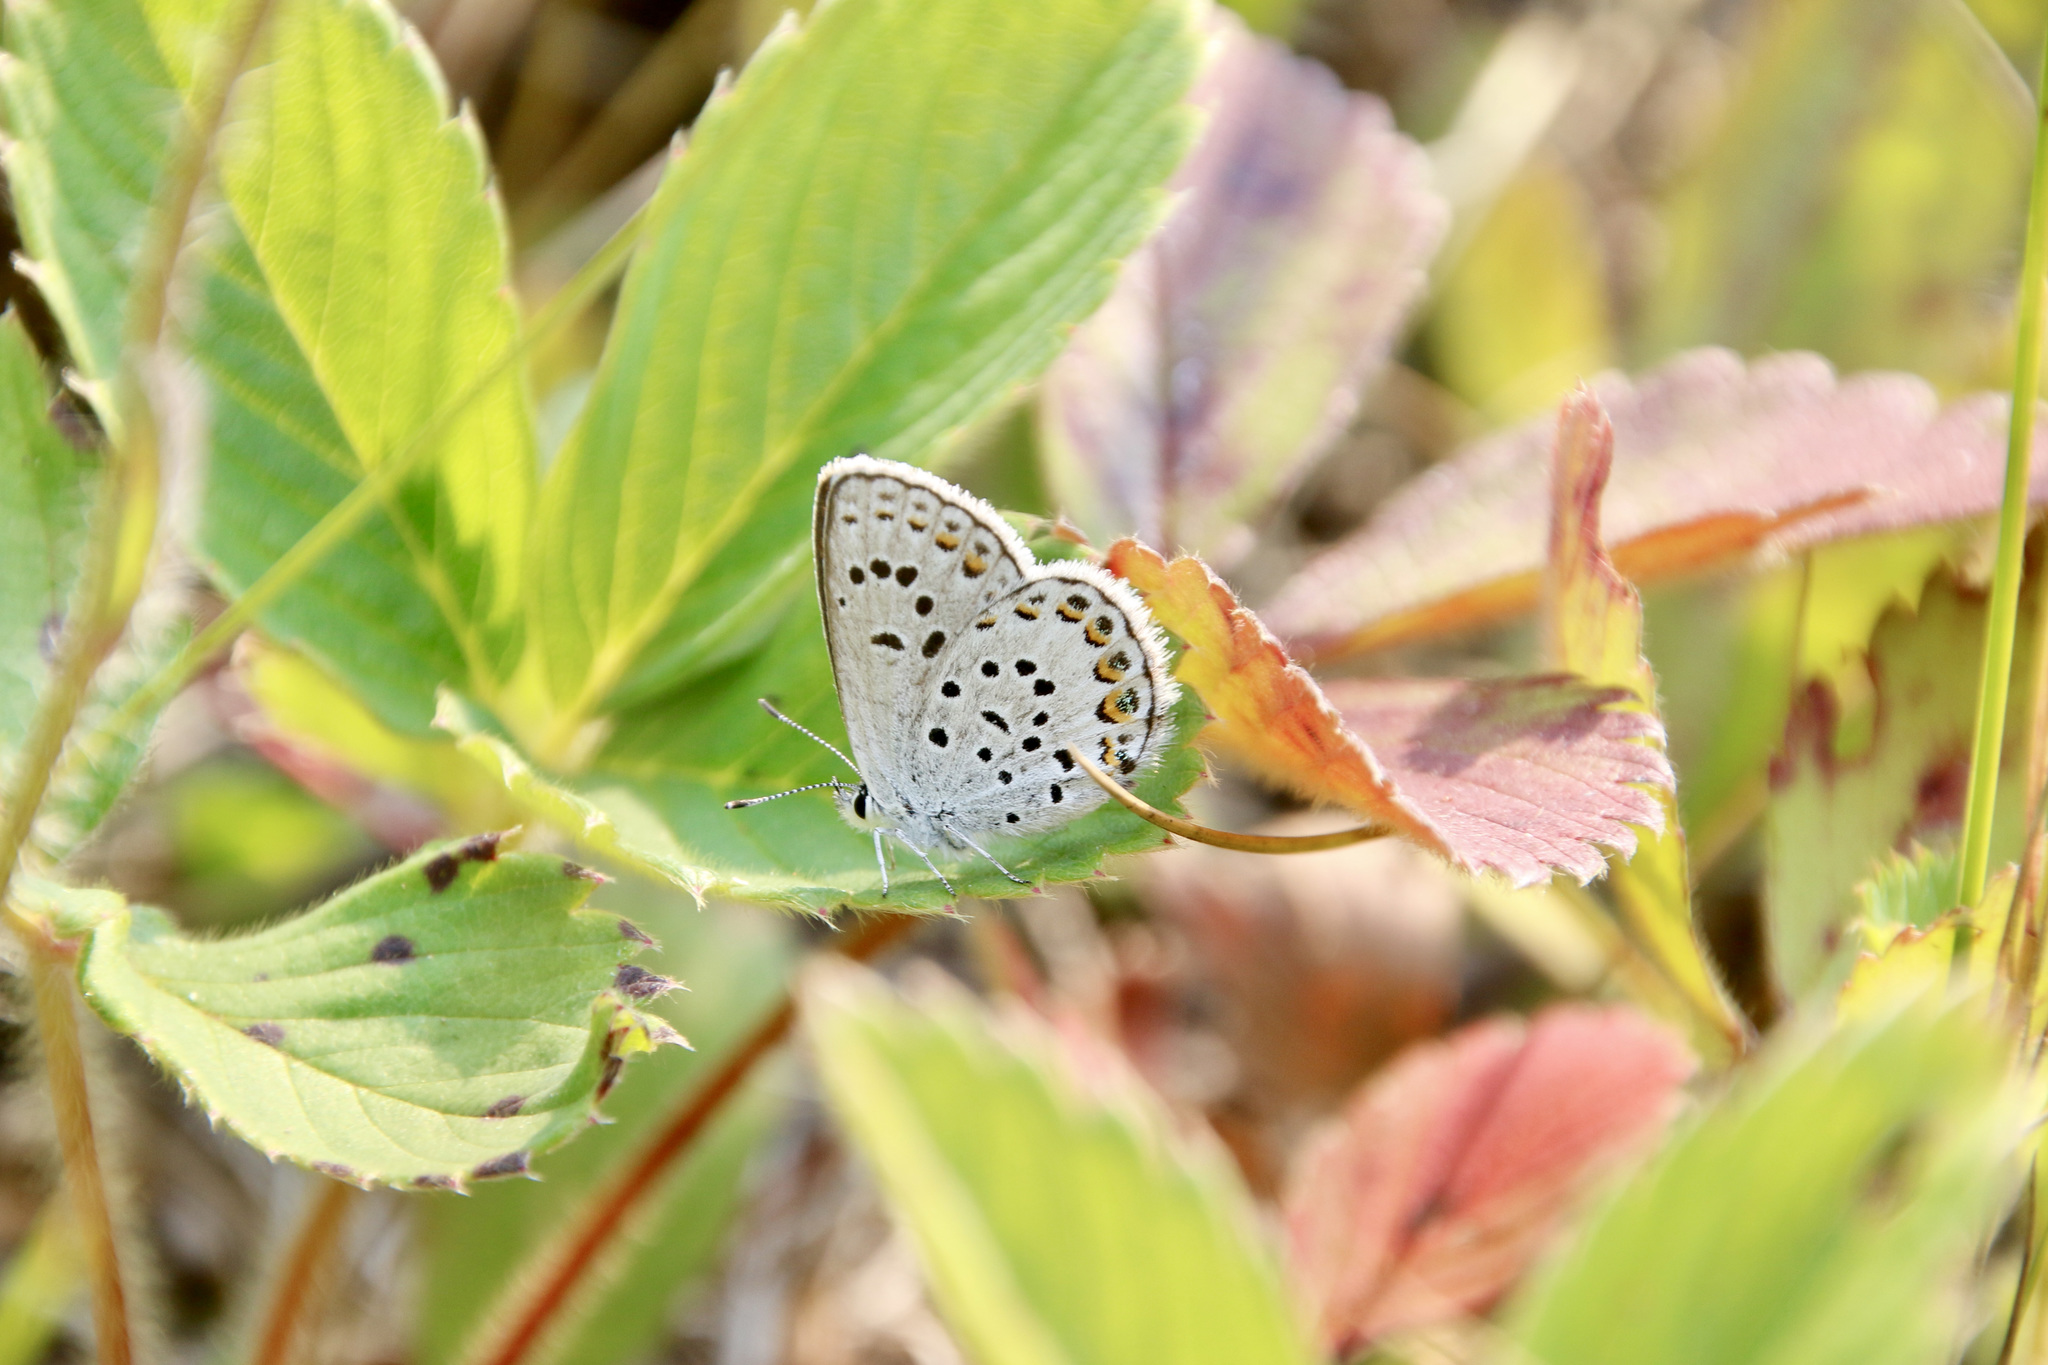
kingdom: Animalia
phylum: Arthropoda
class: Insecta
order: Lepidoptera
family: Lycaenidae
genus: Lycaeides
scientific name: Lycaeides idas
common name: Northern blue
